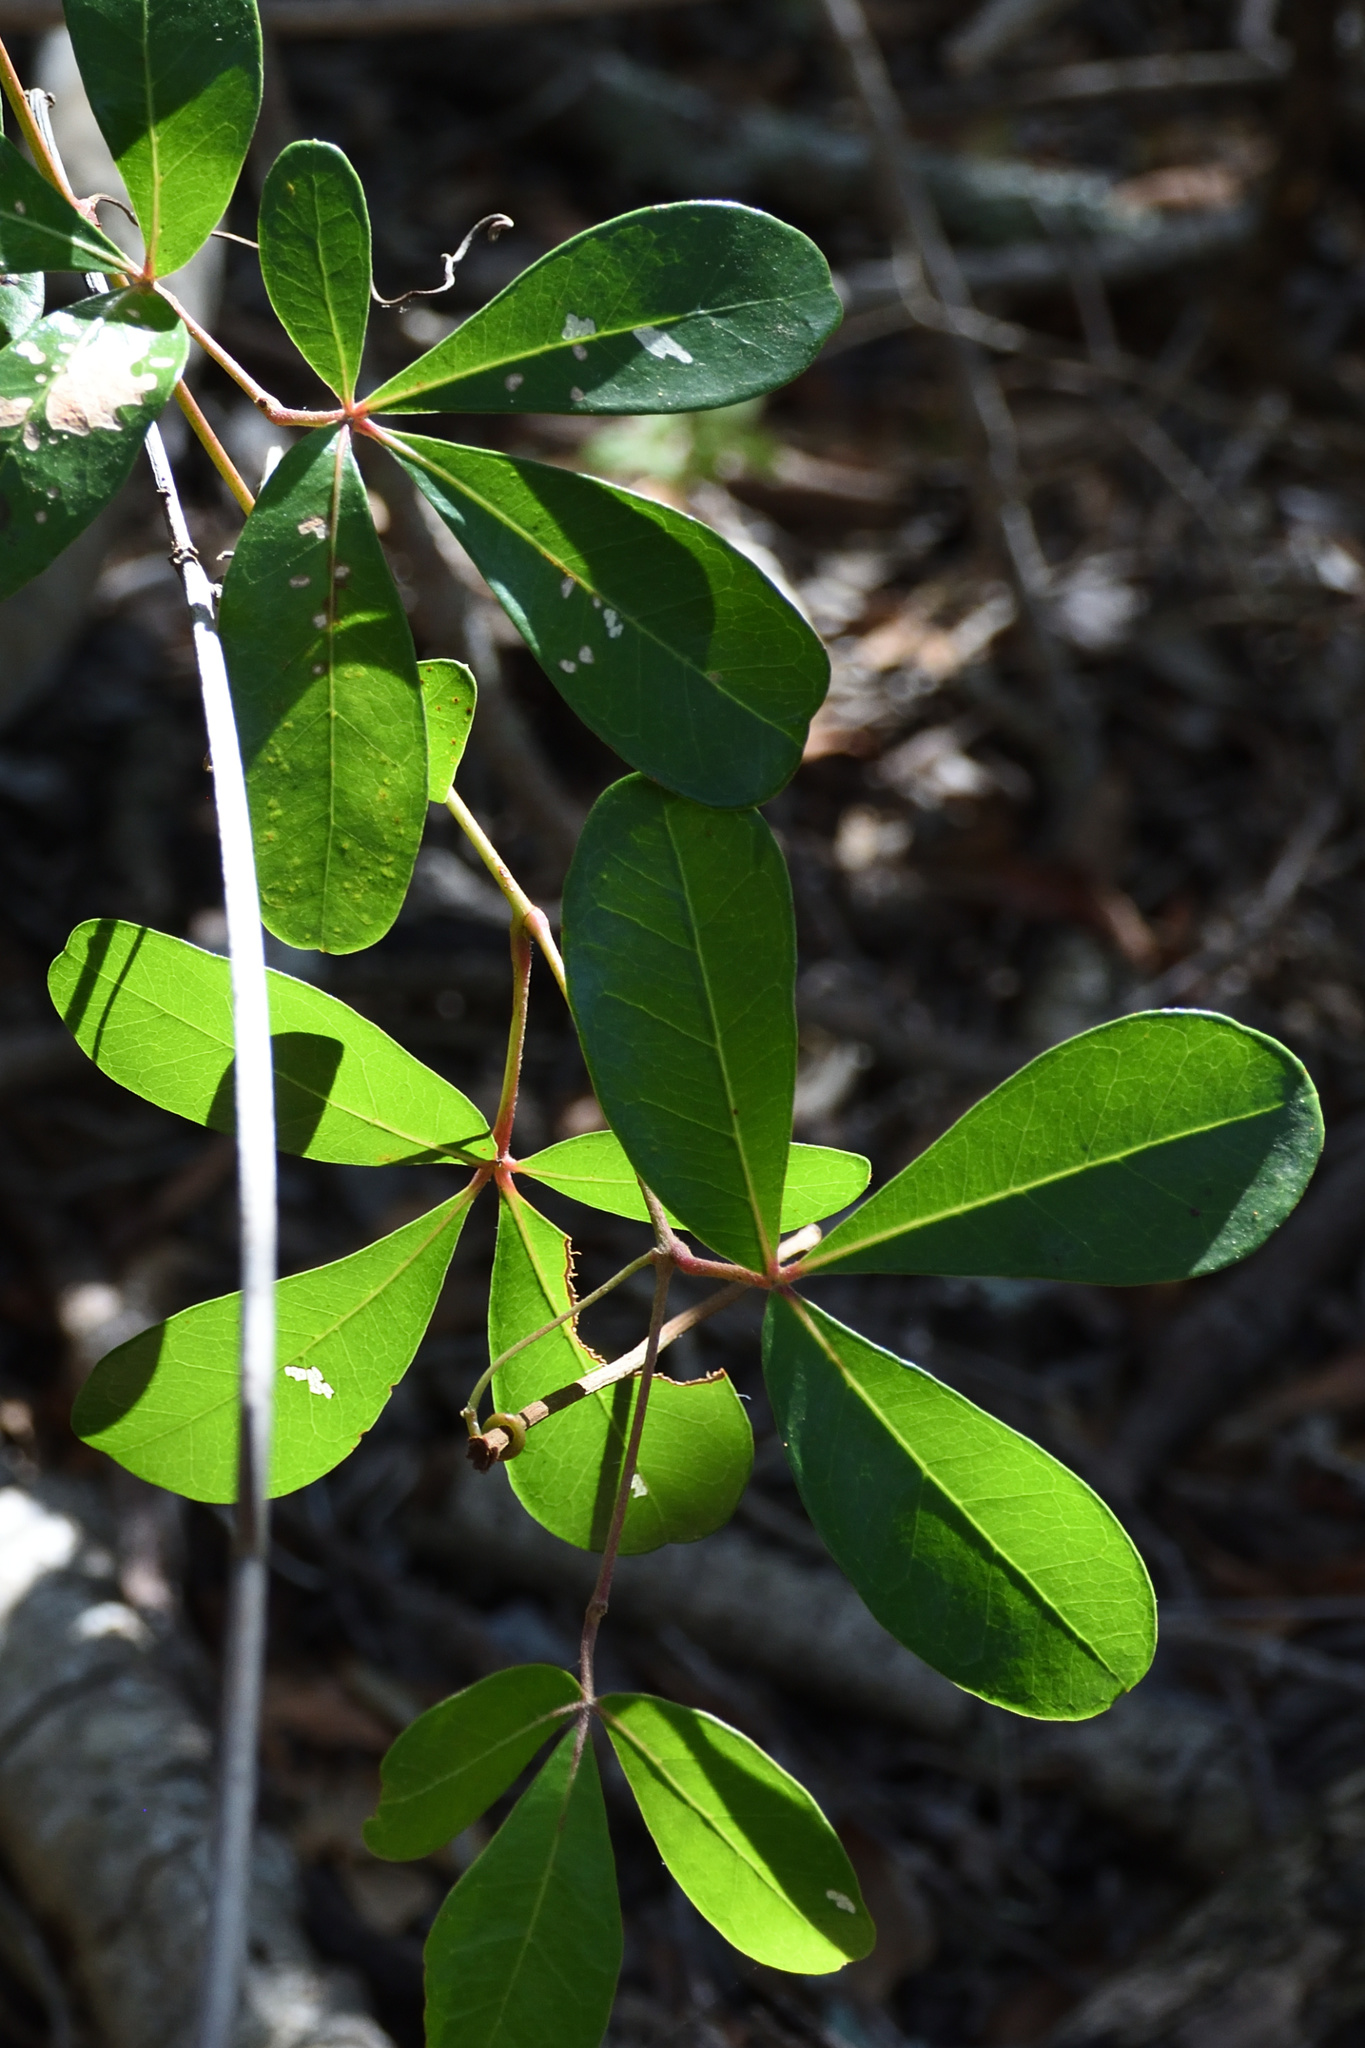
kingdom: Plantae
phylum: Tracheophyta
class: Magnoliopsida
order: Vitales
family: Vitaceae
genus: Rhoicissus
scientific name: Rhoicissus digitata
